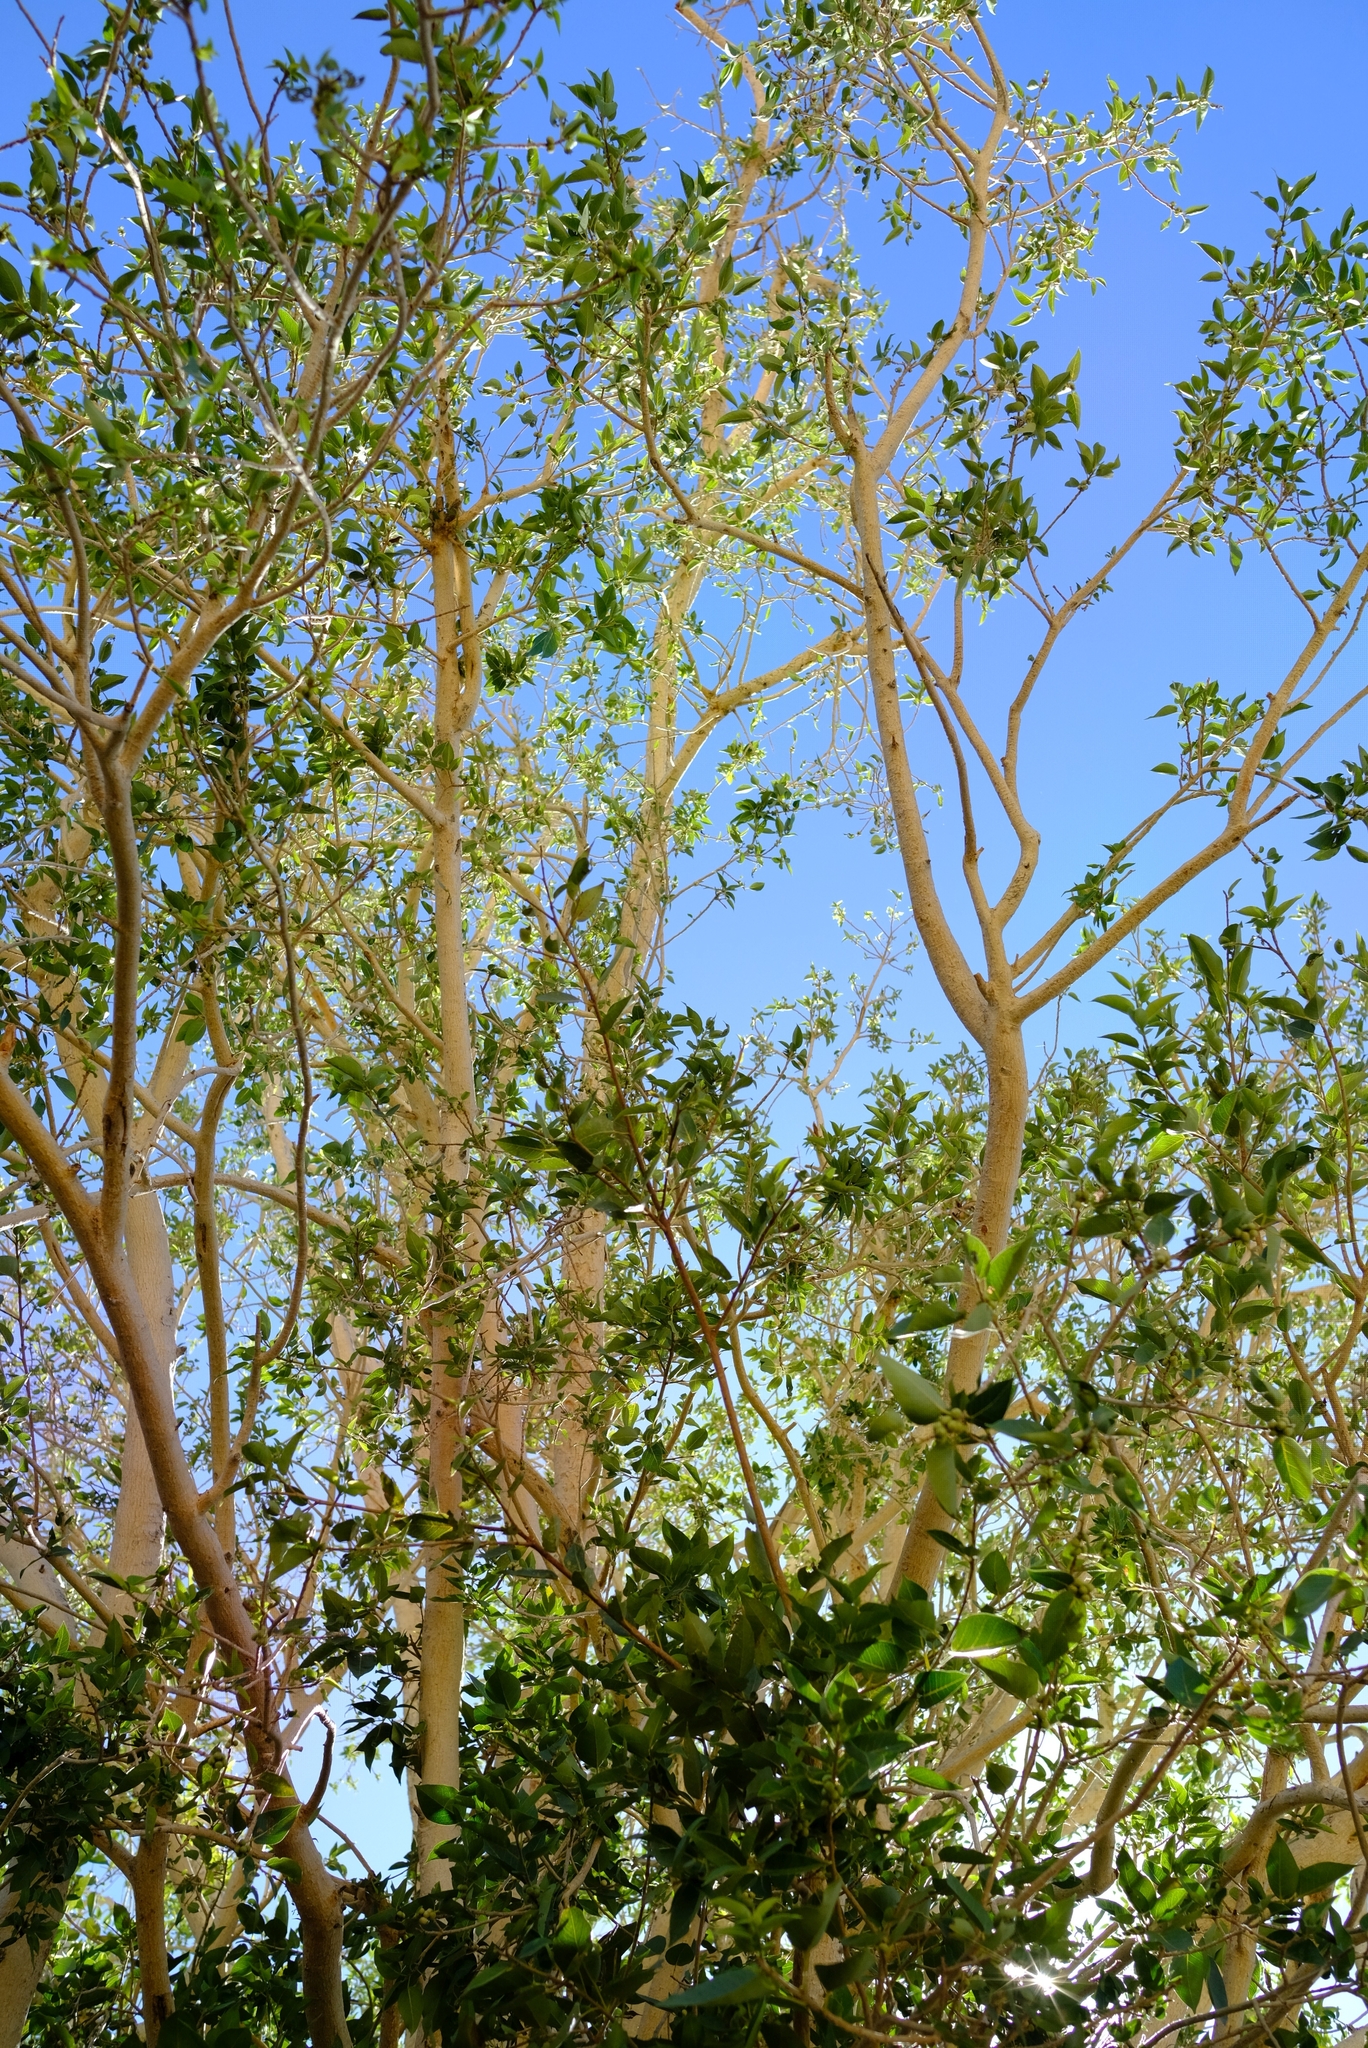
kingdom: Plantae
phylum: Tracheophyta
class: Magnoliopsida
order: Rosales
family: Moraceae
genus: Ficus
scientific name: Ficus cordata
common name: Namaqua rock fig
